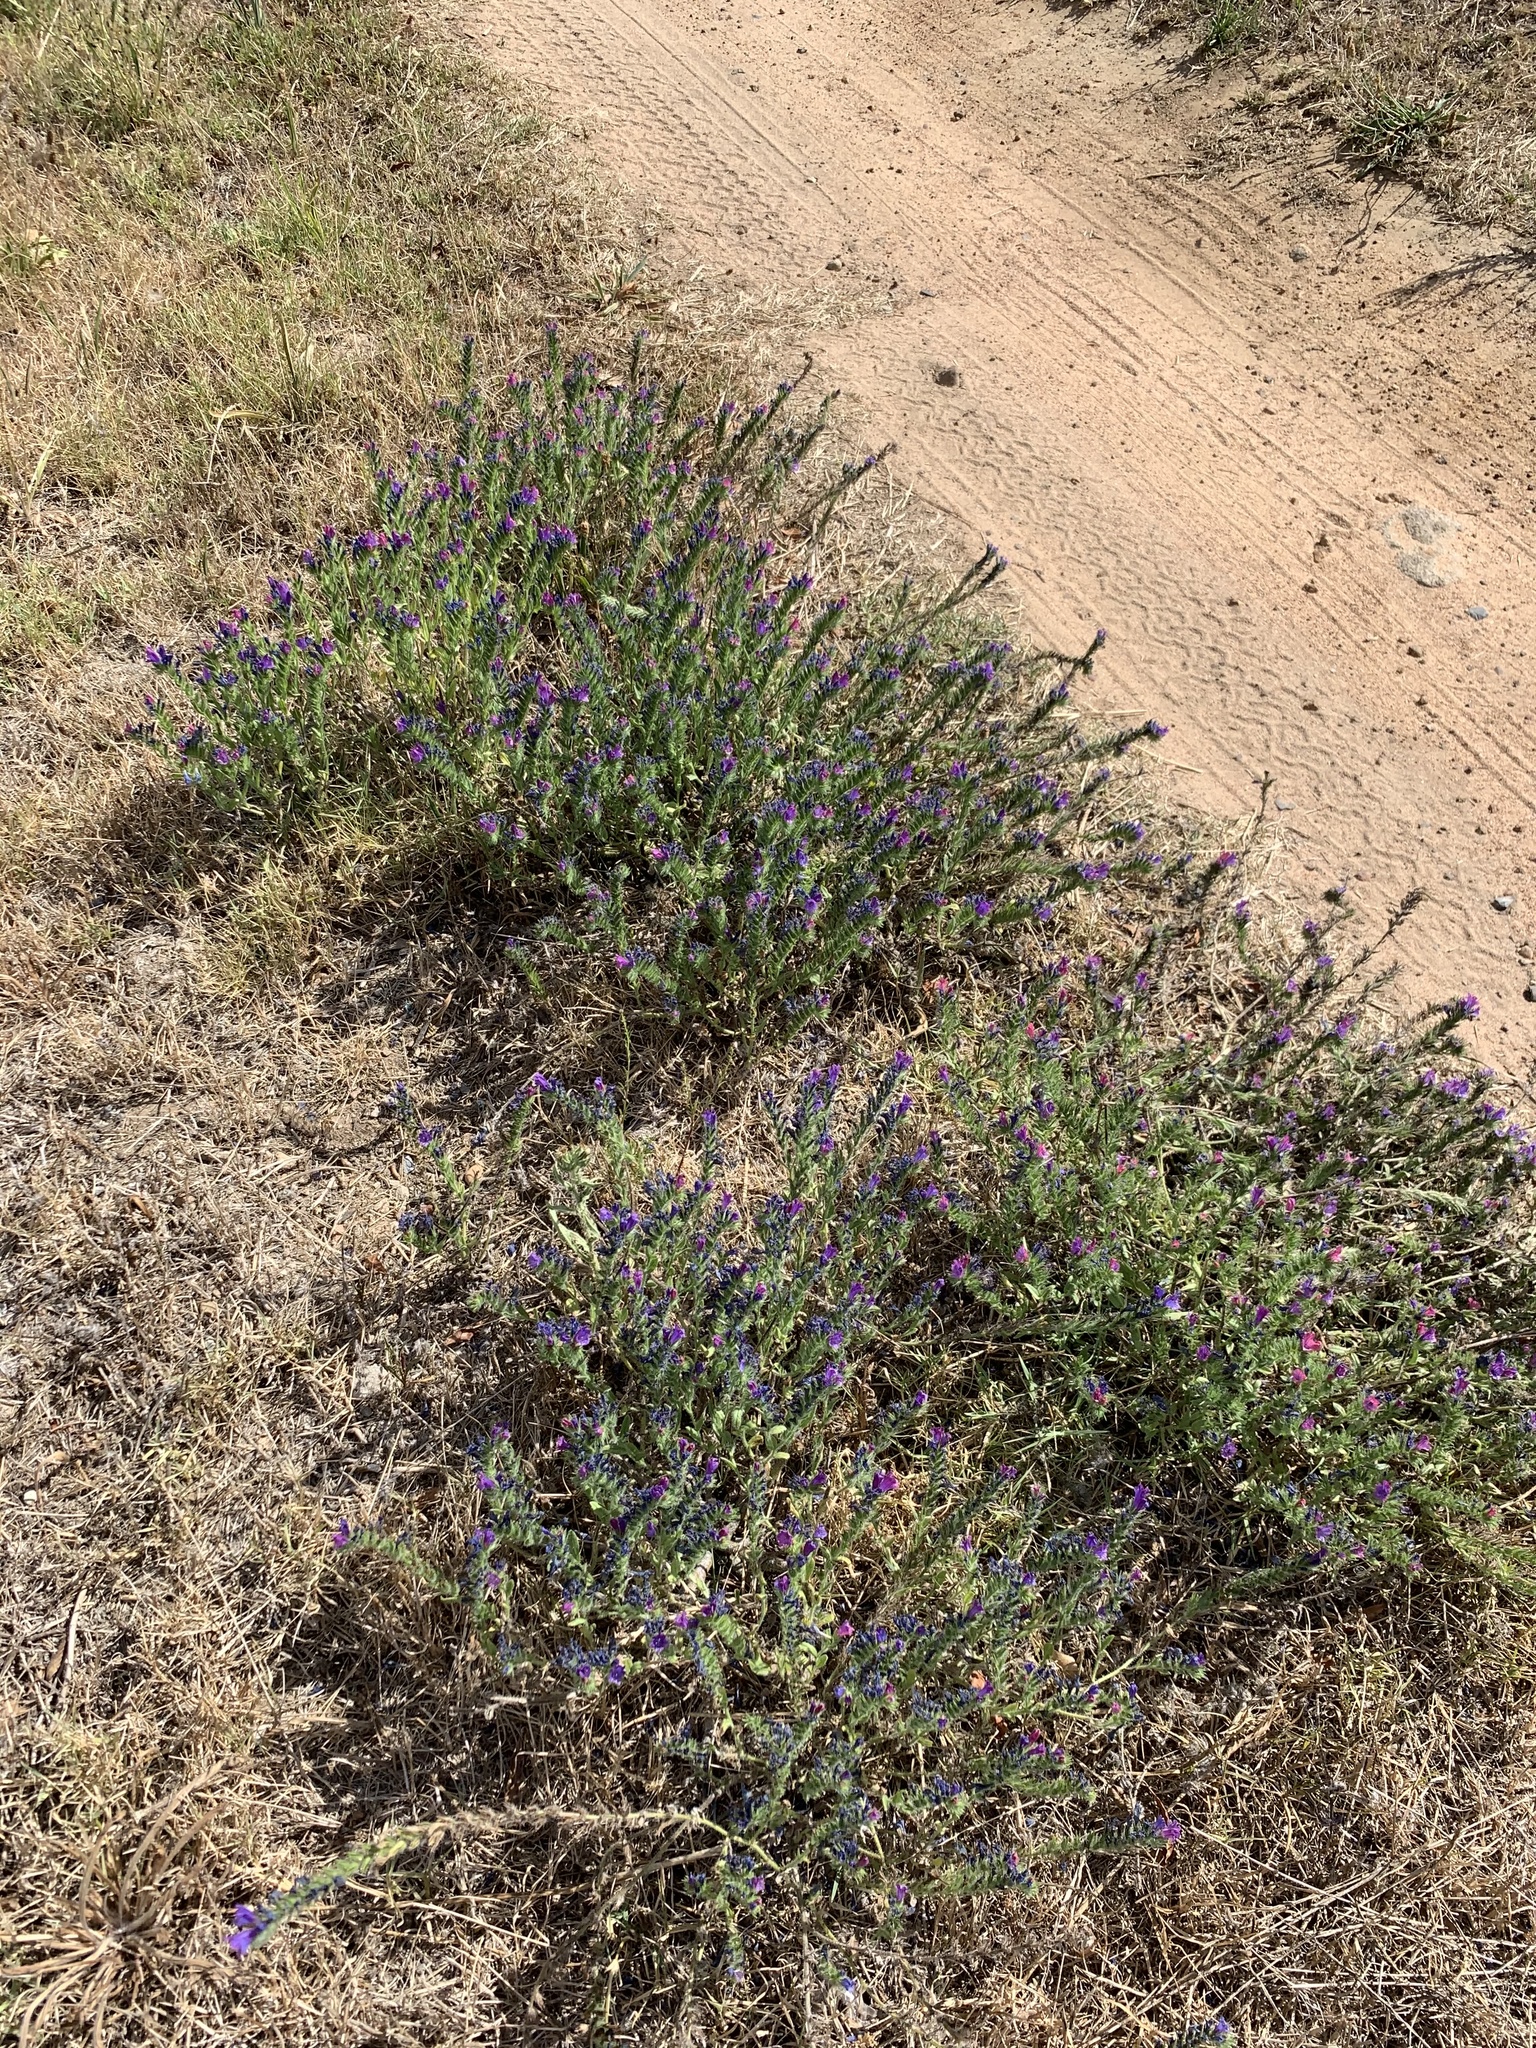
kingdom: Plantae
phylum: Tracheophyta
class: Magnoliopsida
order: Boraginales
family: Boraginaceae
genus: Echium
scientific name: Echium plantagineum
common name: Purple viper's-bugloss
